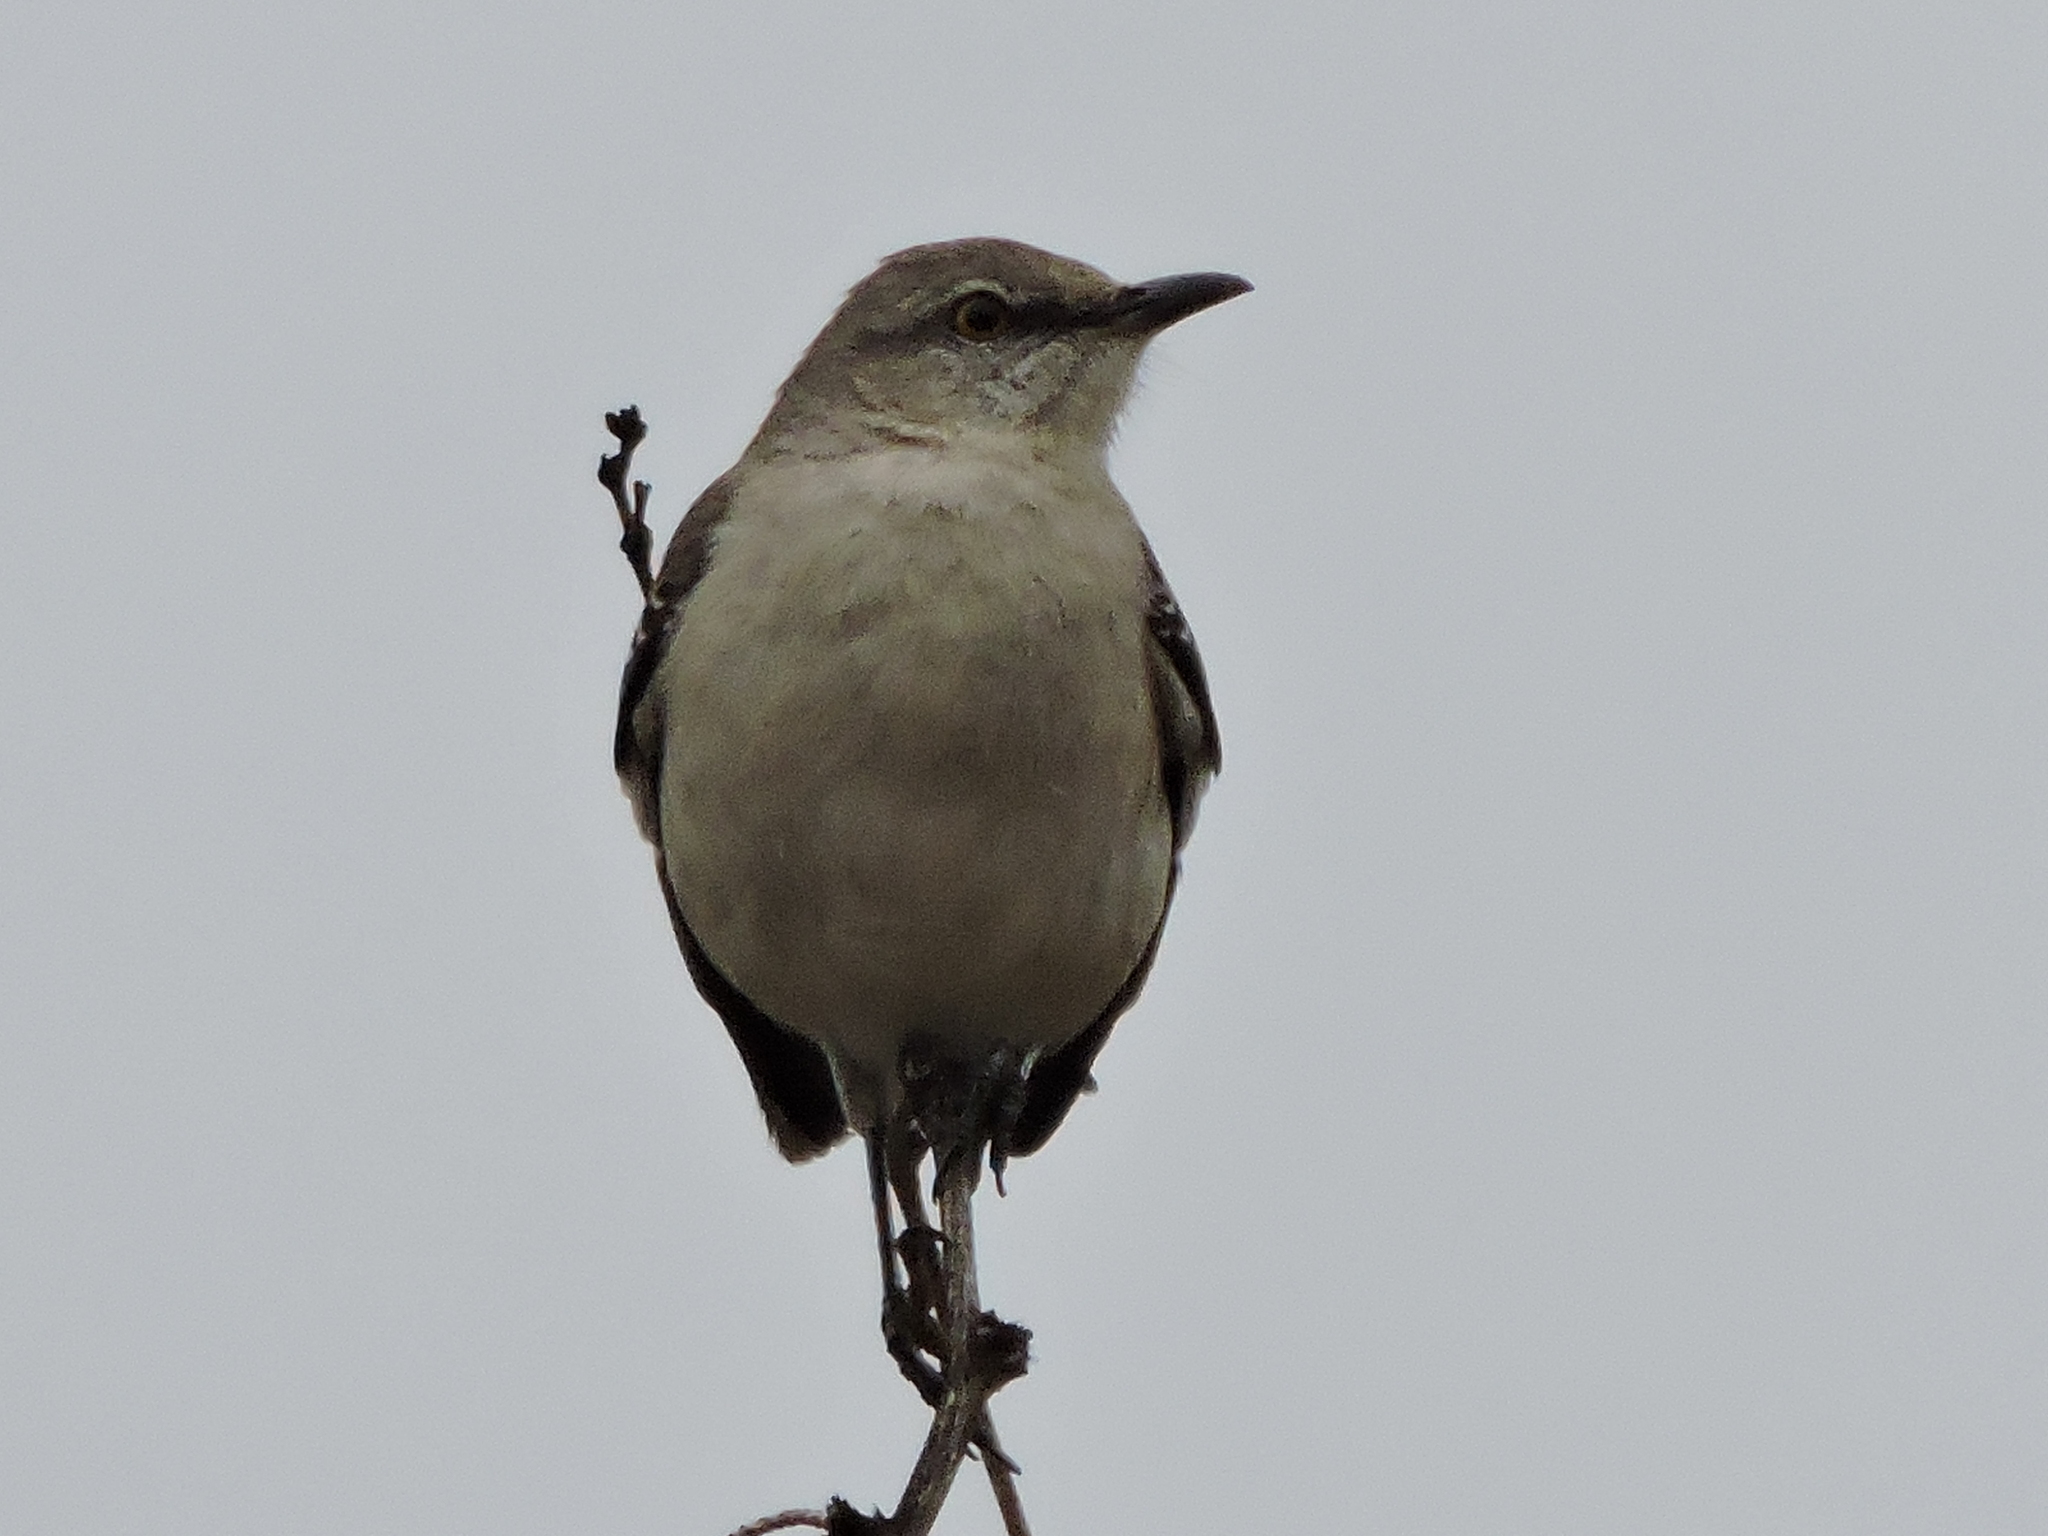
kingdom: Animalia
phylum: Chordata
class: Aves
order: Passeriformes
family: Mimidae
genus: Mimus
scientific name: Mimus polyglottos
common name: Northern mockingbird
